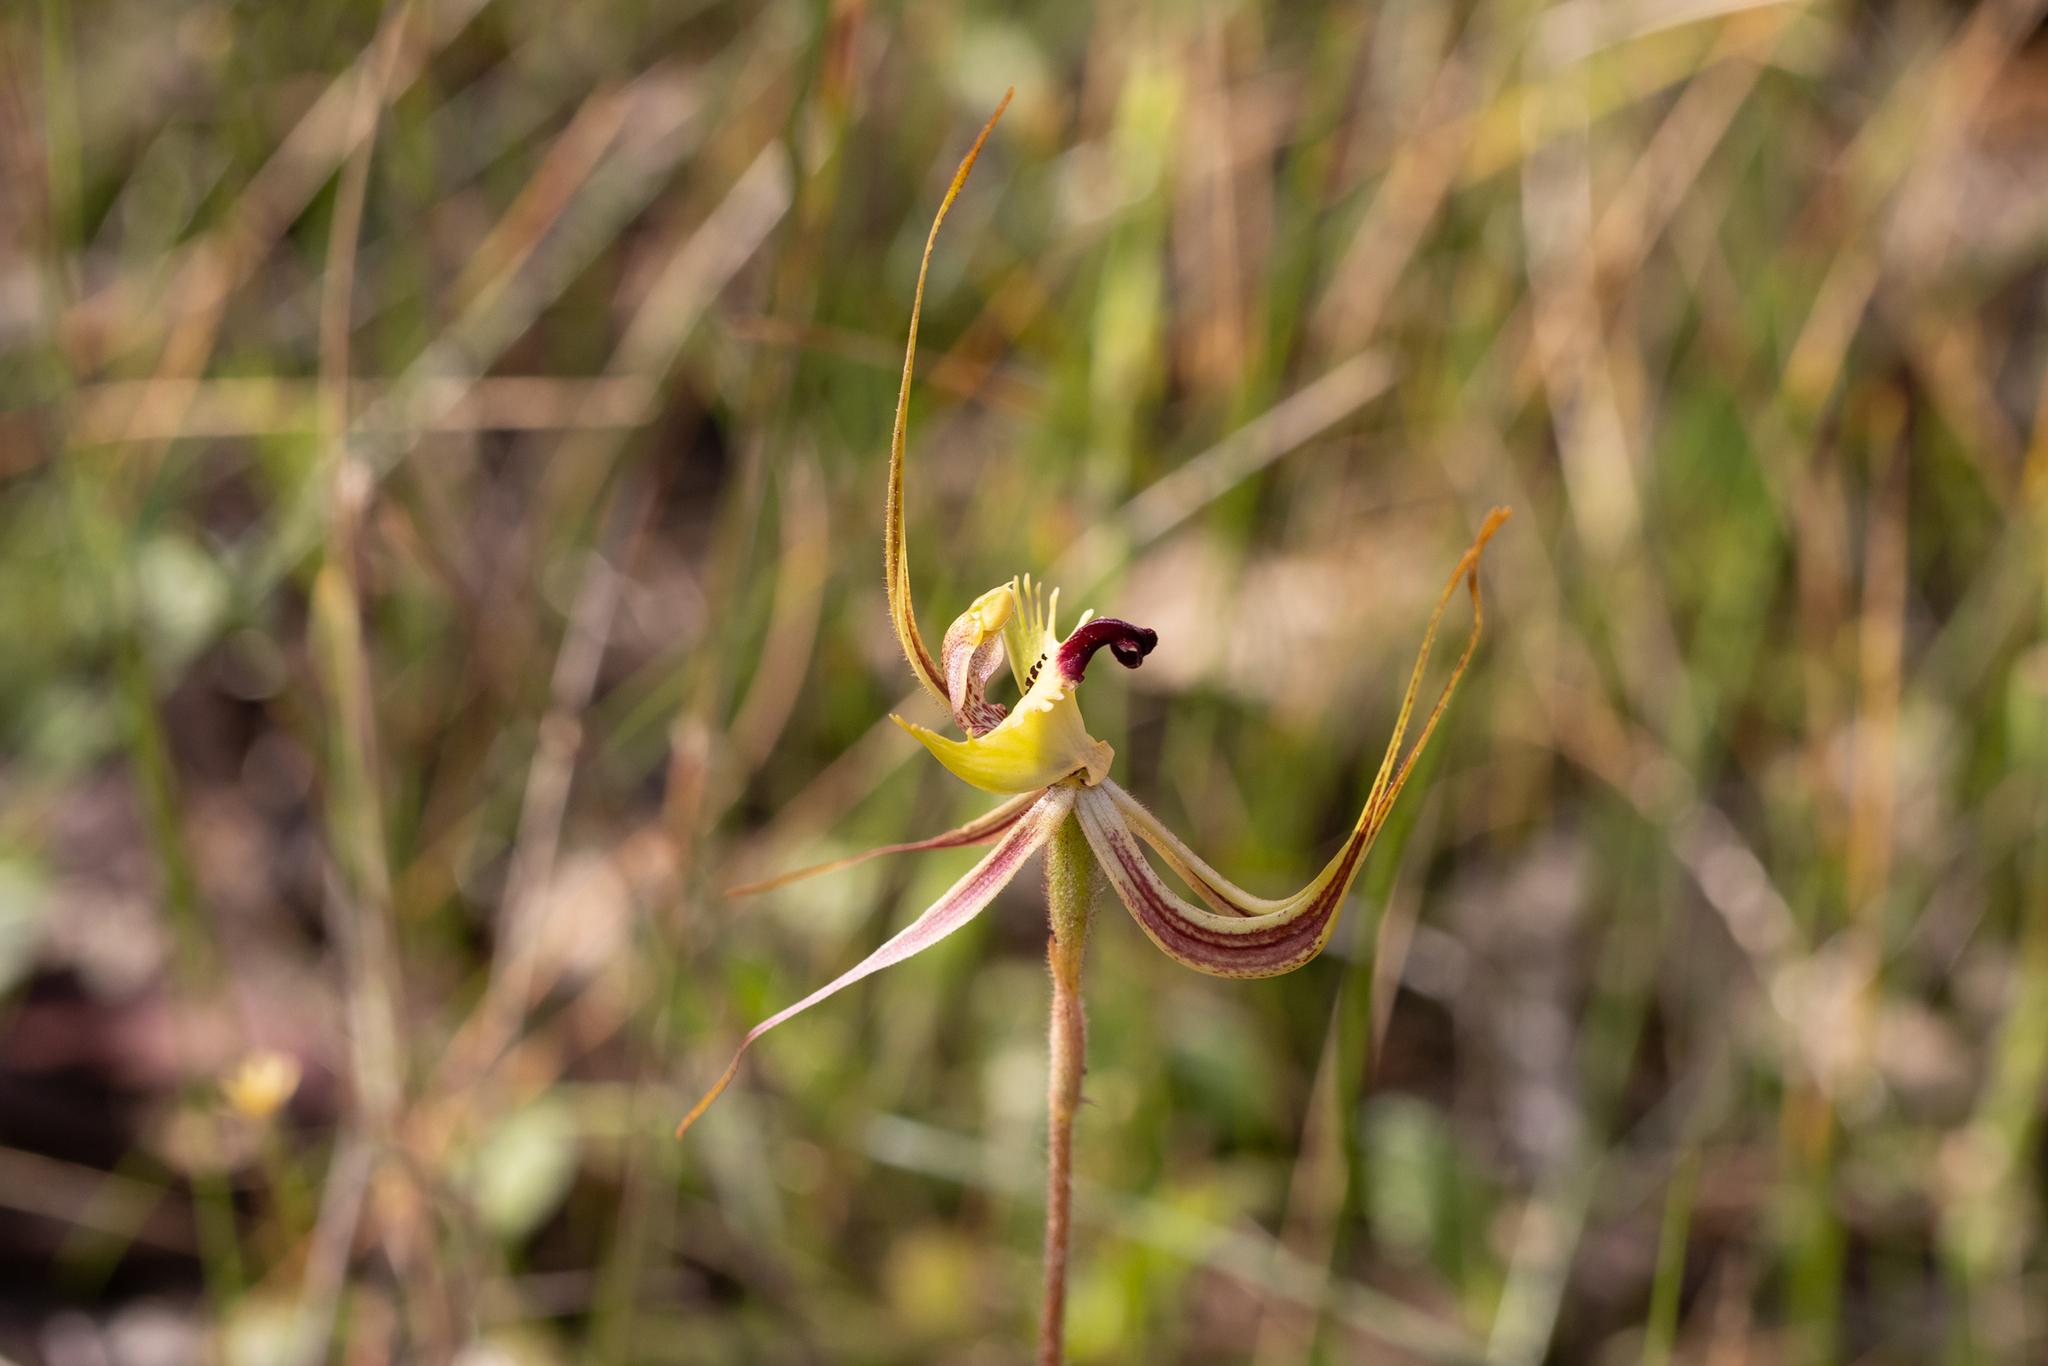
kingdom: Plantae
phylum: Tracheophyta
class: Liliopsida
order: Asparagales
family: Orchidaceae
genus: Caladenia
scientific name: Caladenia falcata
